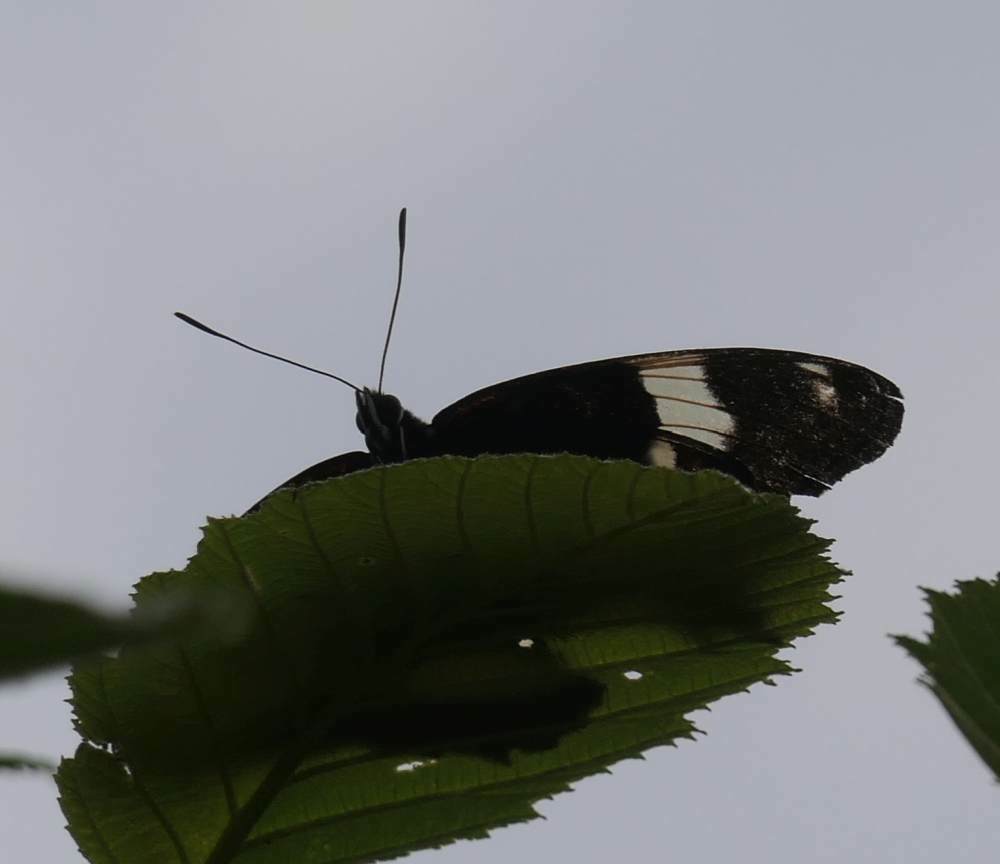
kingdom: Animalia
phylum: Arthropoda
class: Insecta
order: Lepidoptera
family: Nymphalidae
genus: Limenitis
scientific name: Limenitis arthemis
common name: Red-spotted admiral
